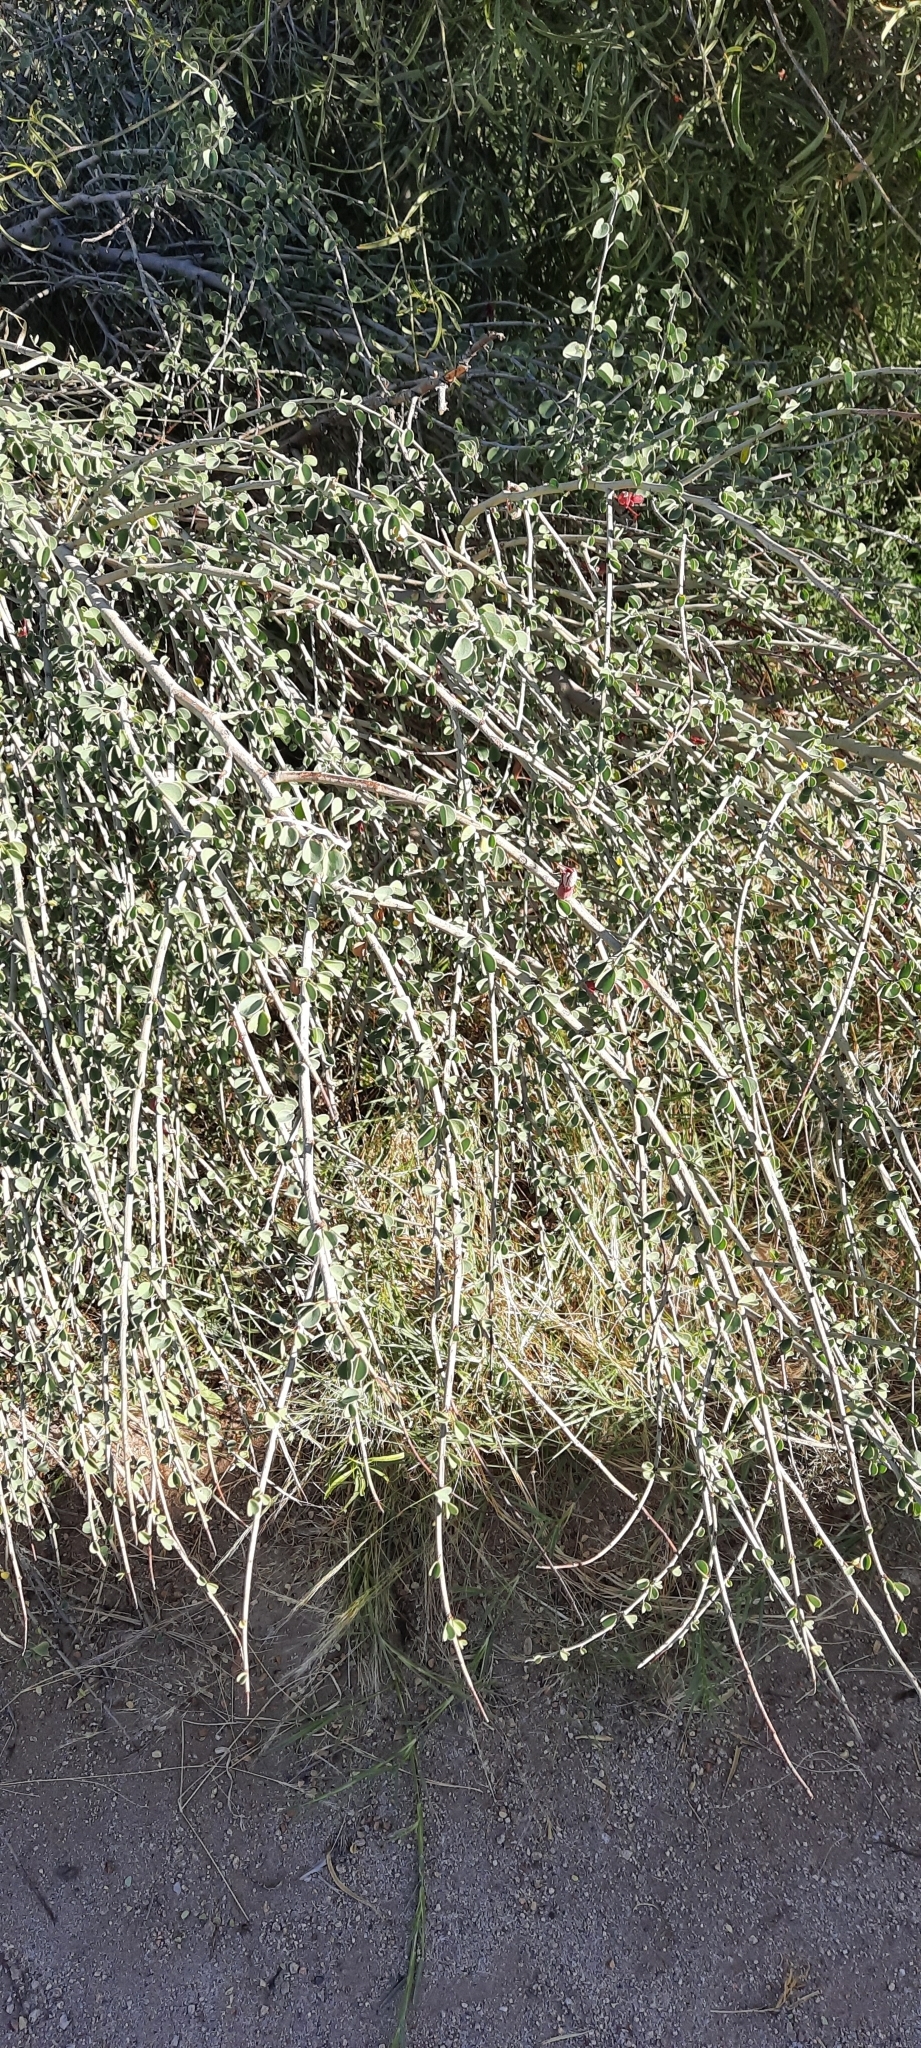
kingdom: Plantae
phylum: Tracheophyta
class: Magnoliopsida
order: Fabales
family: Fabaceae
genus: Adenolobus
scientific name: Adenolobus garipensis
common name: Butterfly-leaf
